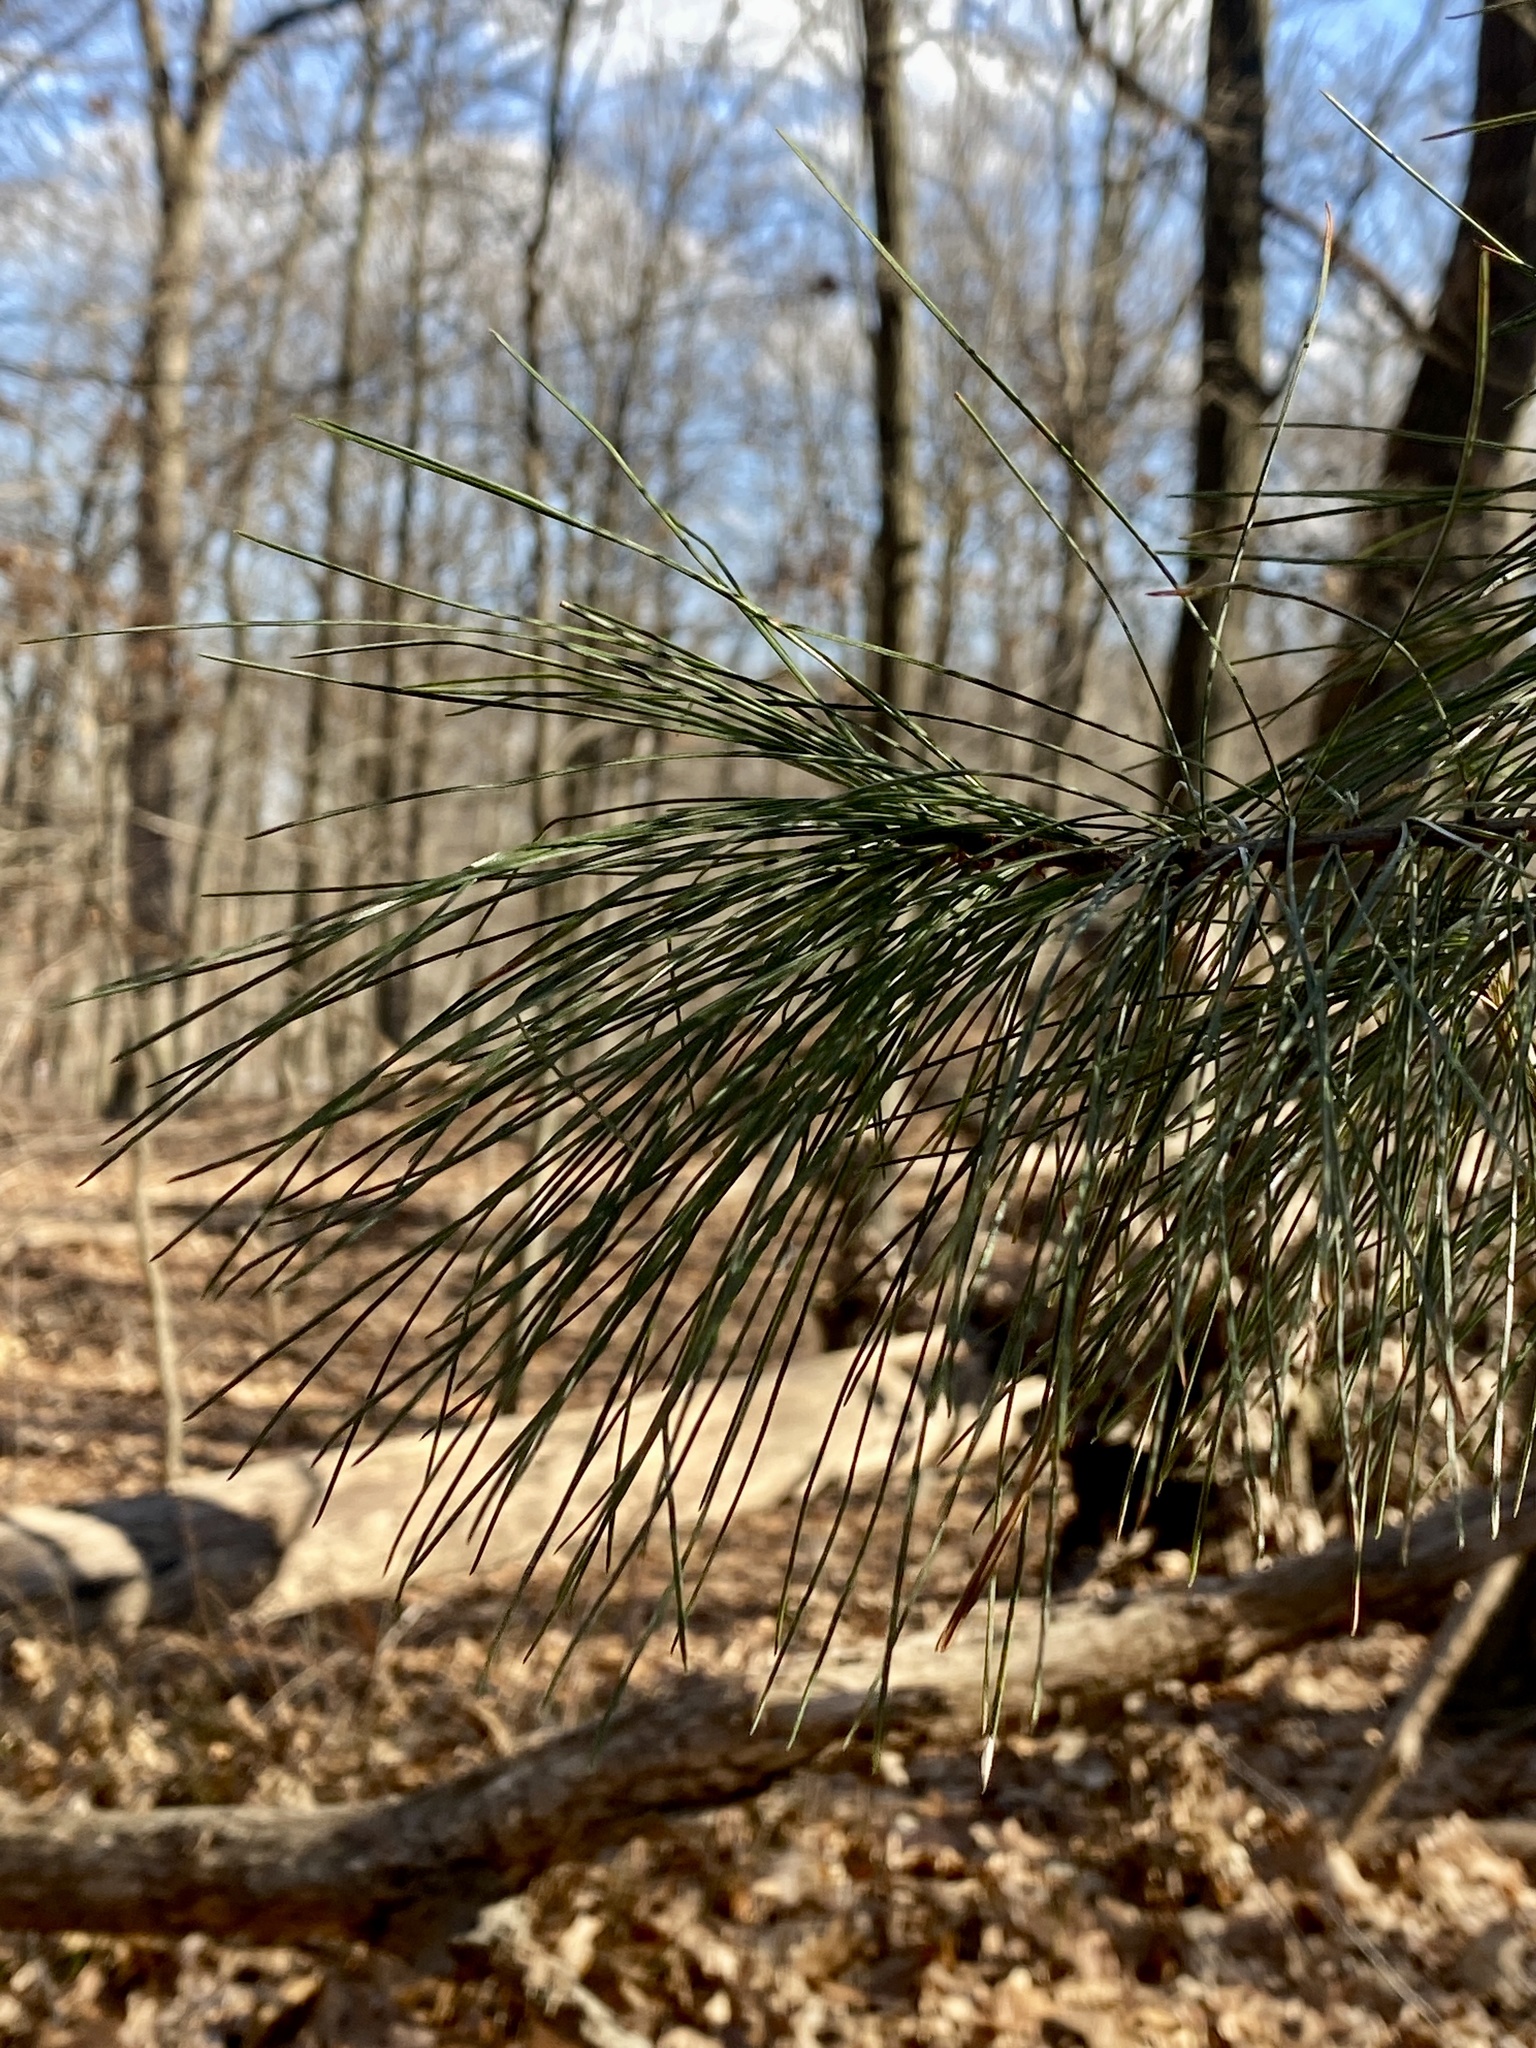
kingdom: Plantae
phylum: Tracheophyta
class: Pinopsida
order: Pinales
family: Pinaceae
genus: Pinus
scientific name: Pinus strobus
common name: Weymouth pine
